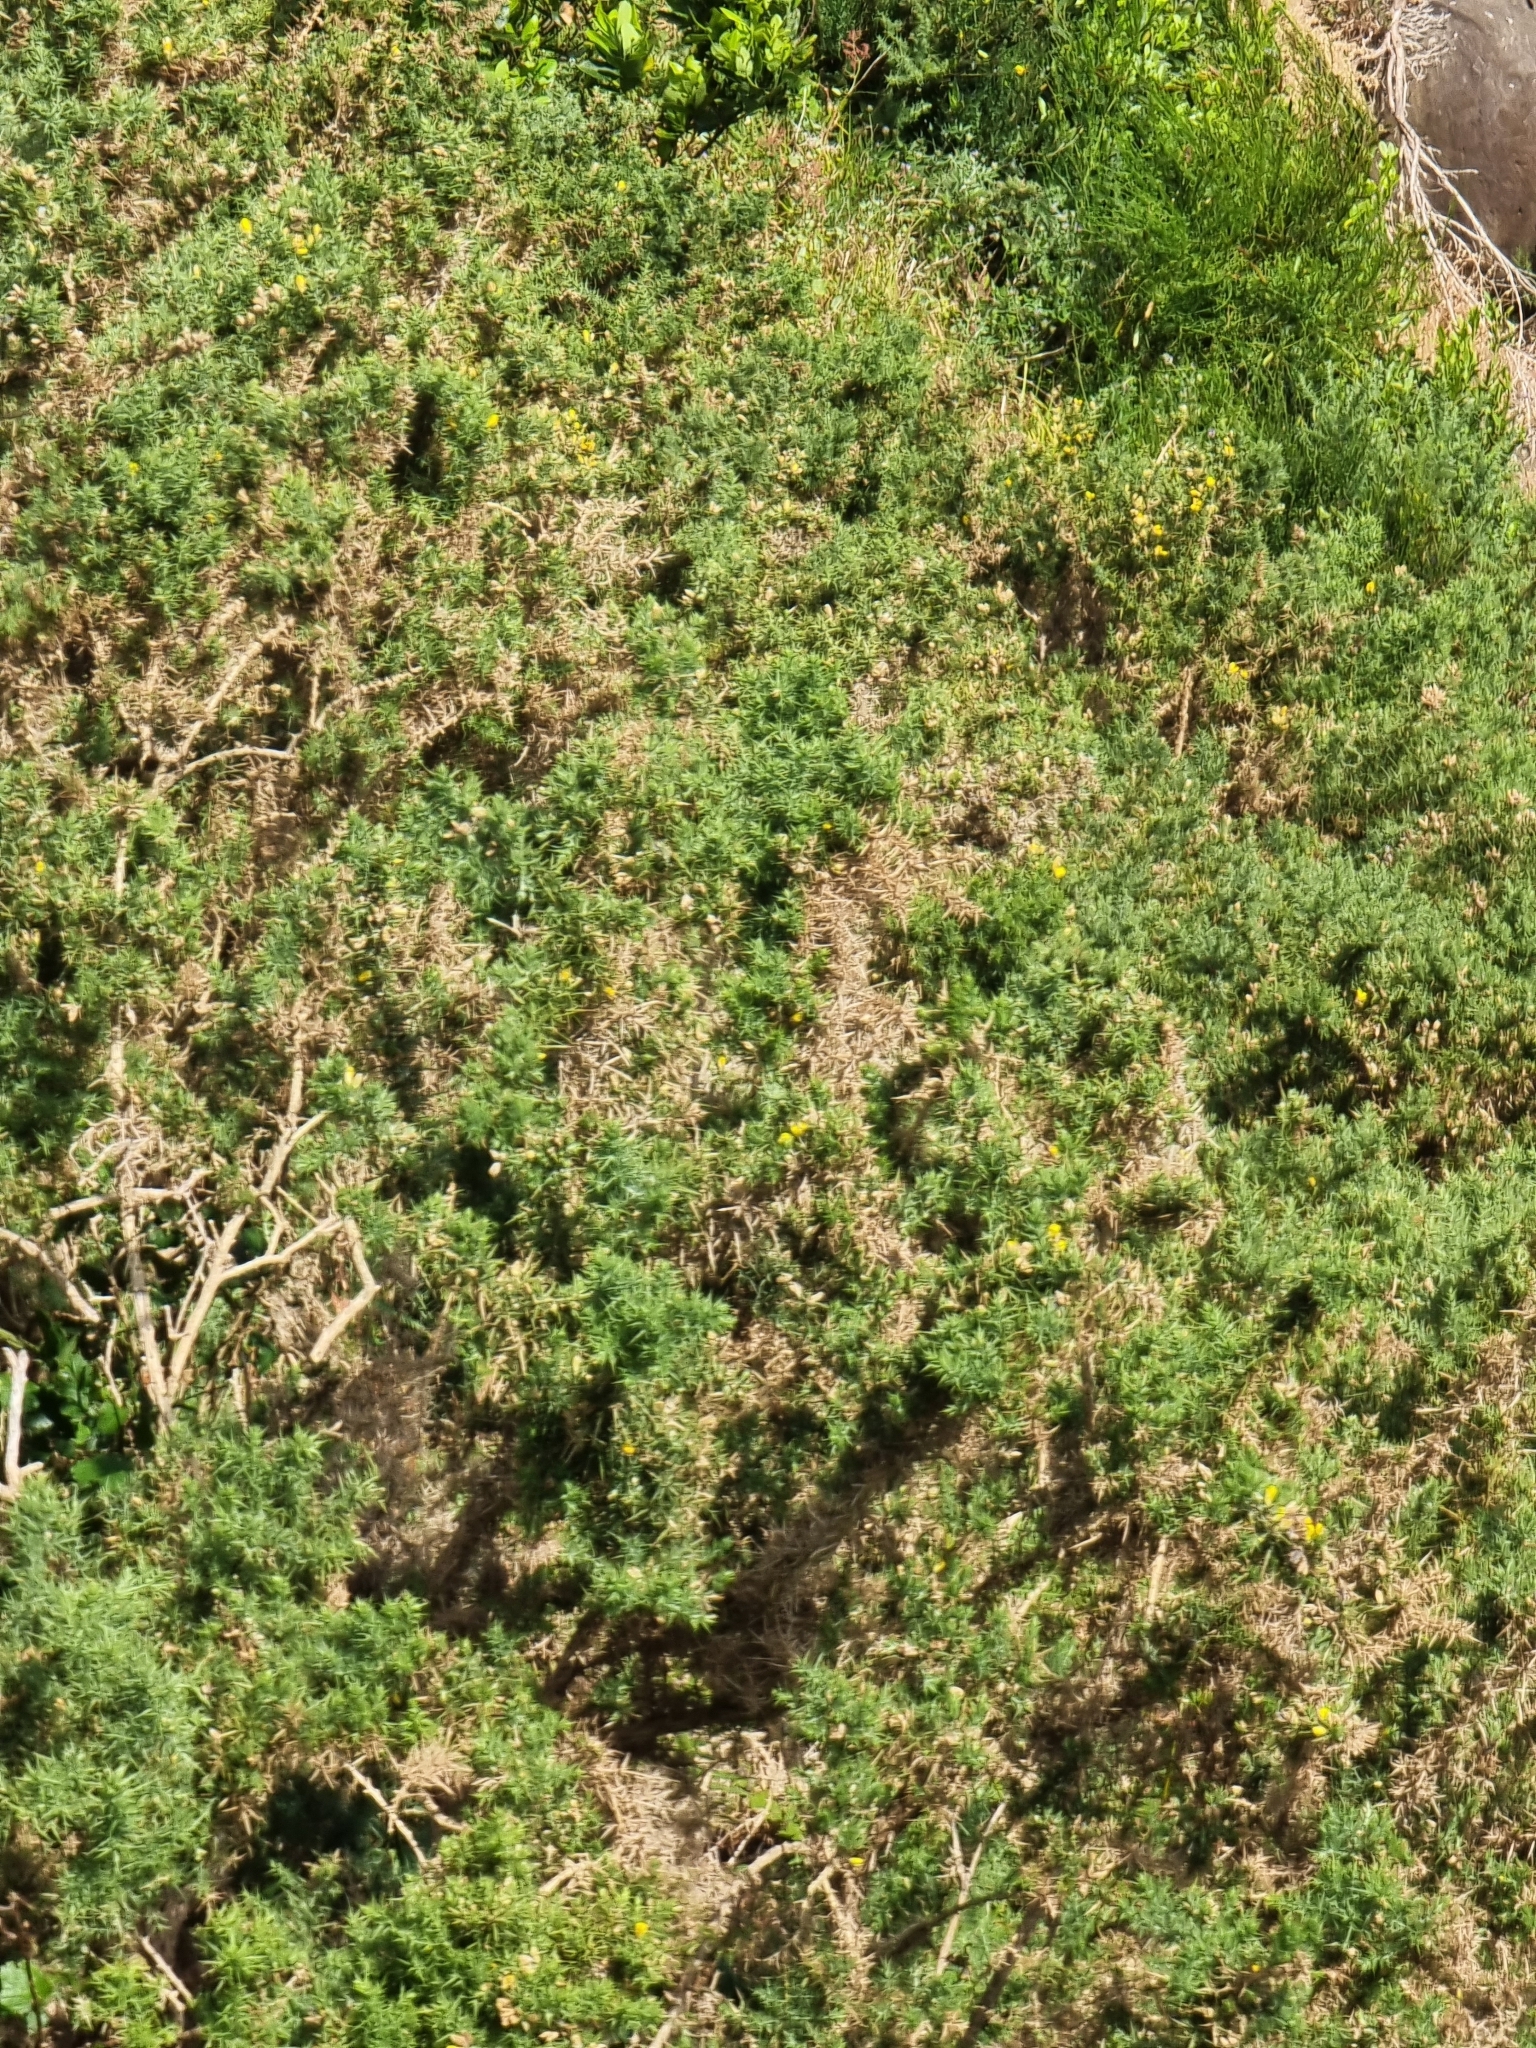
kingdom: Plantae
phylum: Tracheophyta
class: Magnoliopsida
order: Fabales
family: Fabaceae
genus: Ulex
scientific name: Ulex europaeus
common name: Common gorse
